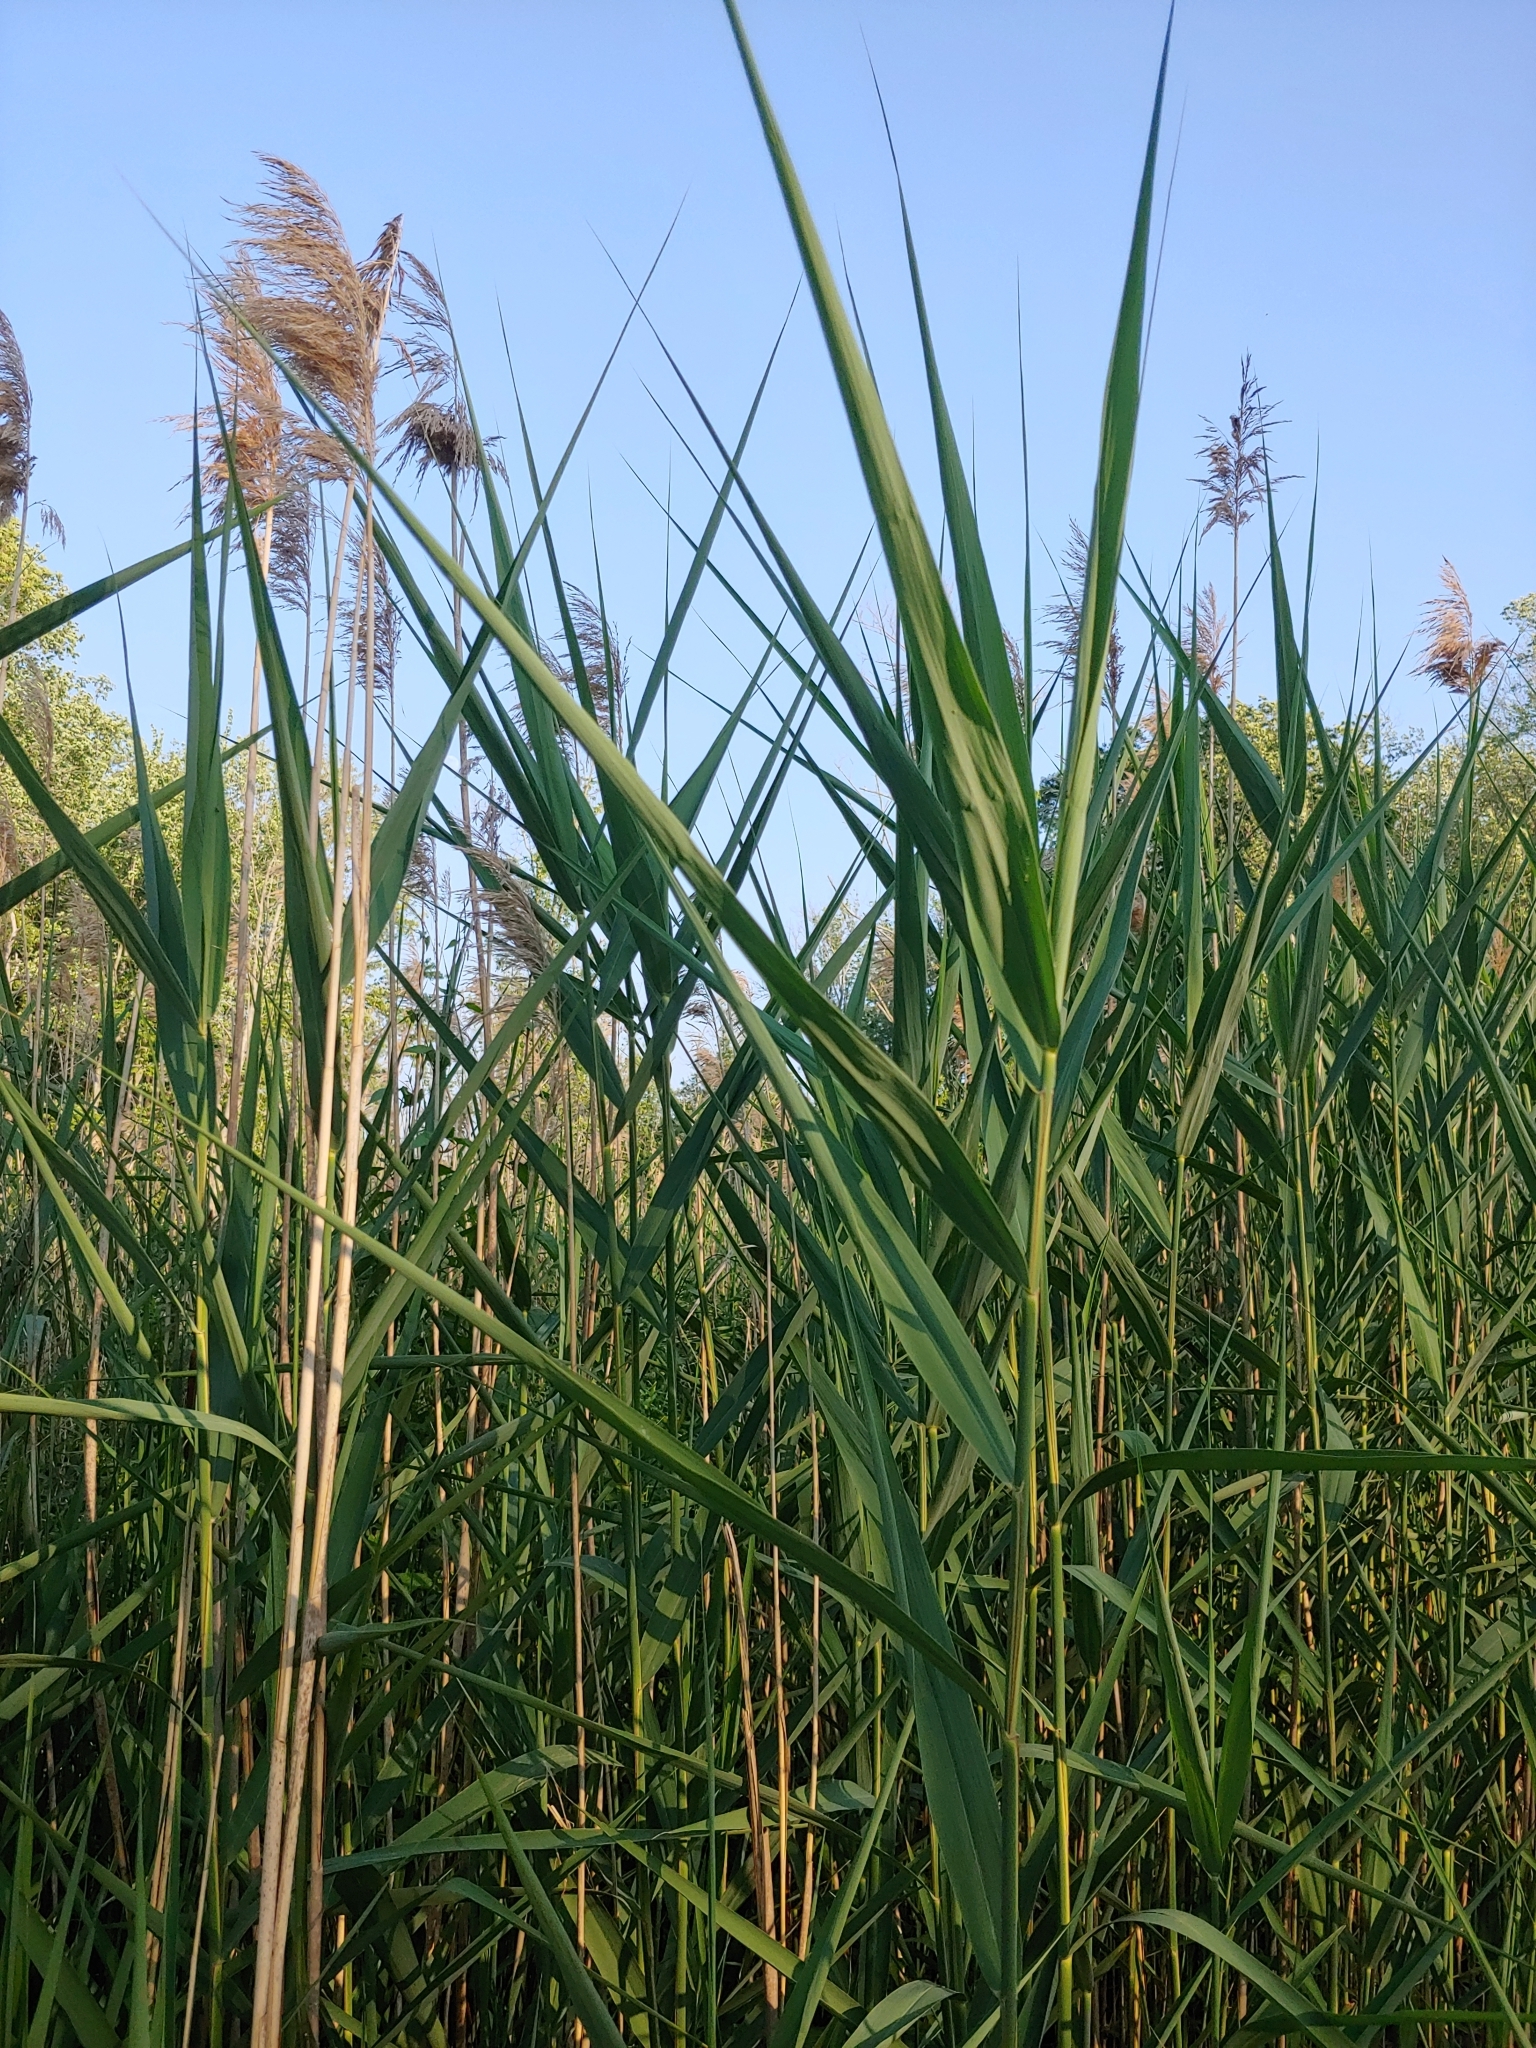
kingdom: Plantae
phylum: Tracheophyta
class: Liliopsida
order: Poales
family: Poaceae
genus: Phragmites
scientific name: Phragmites australis
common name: Common reed
